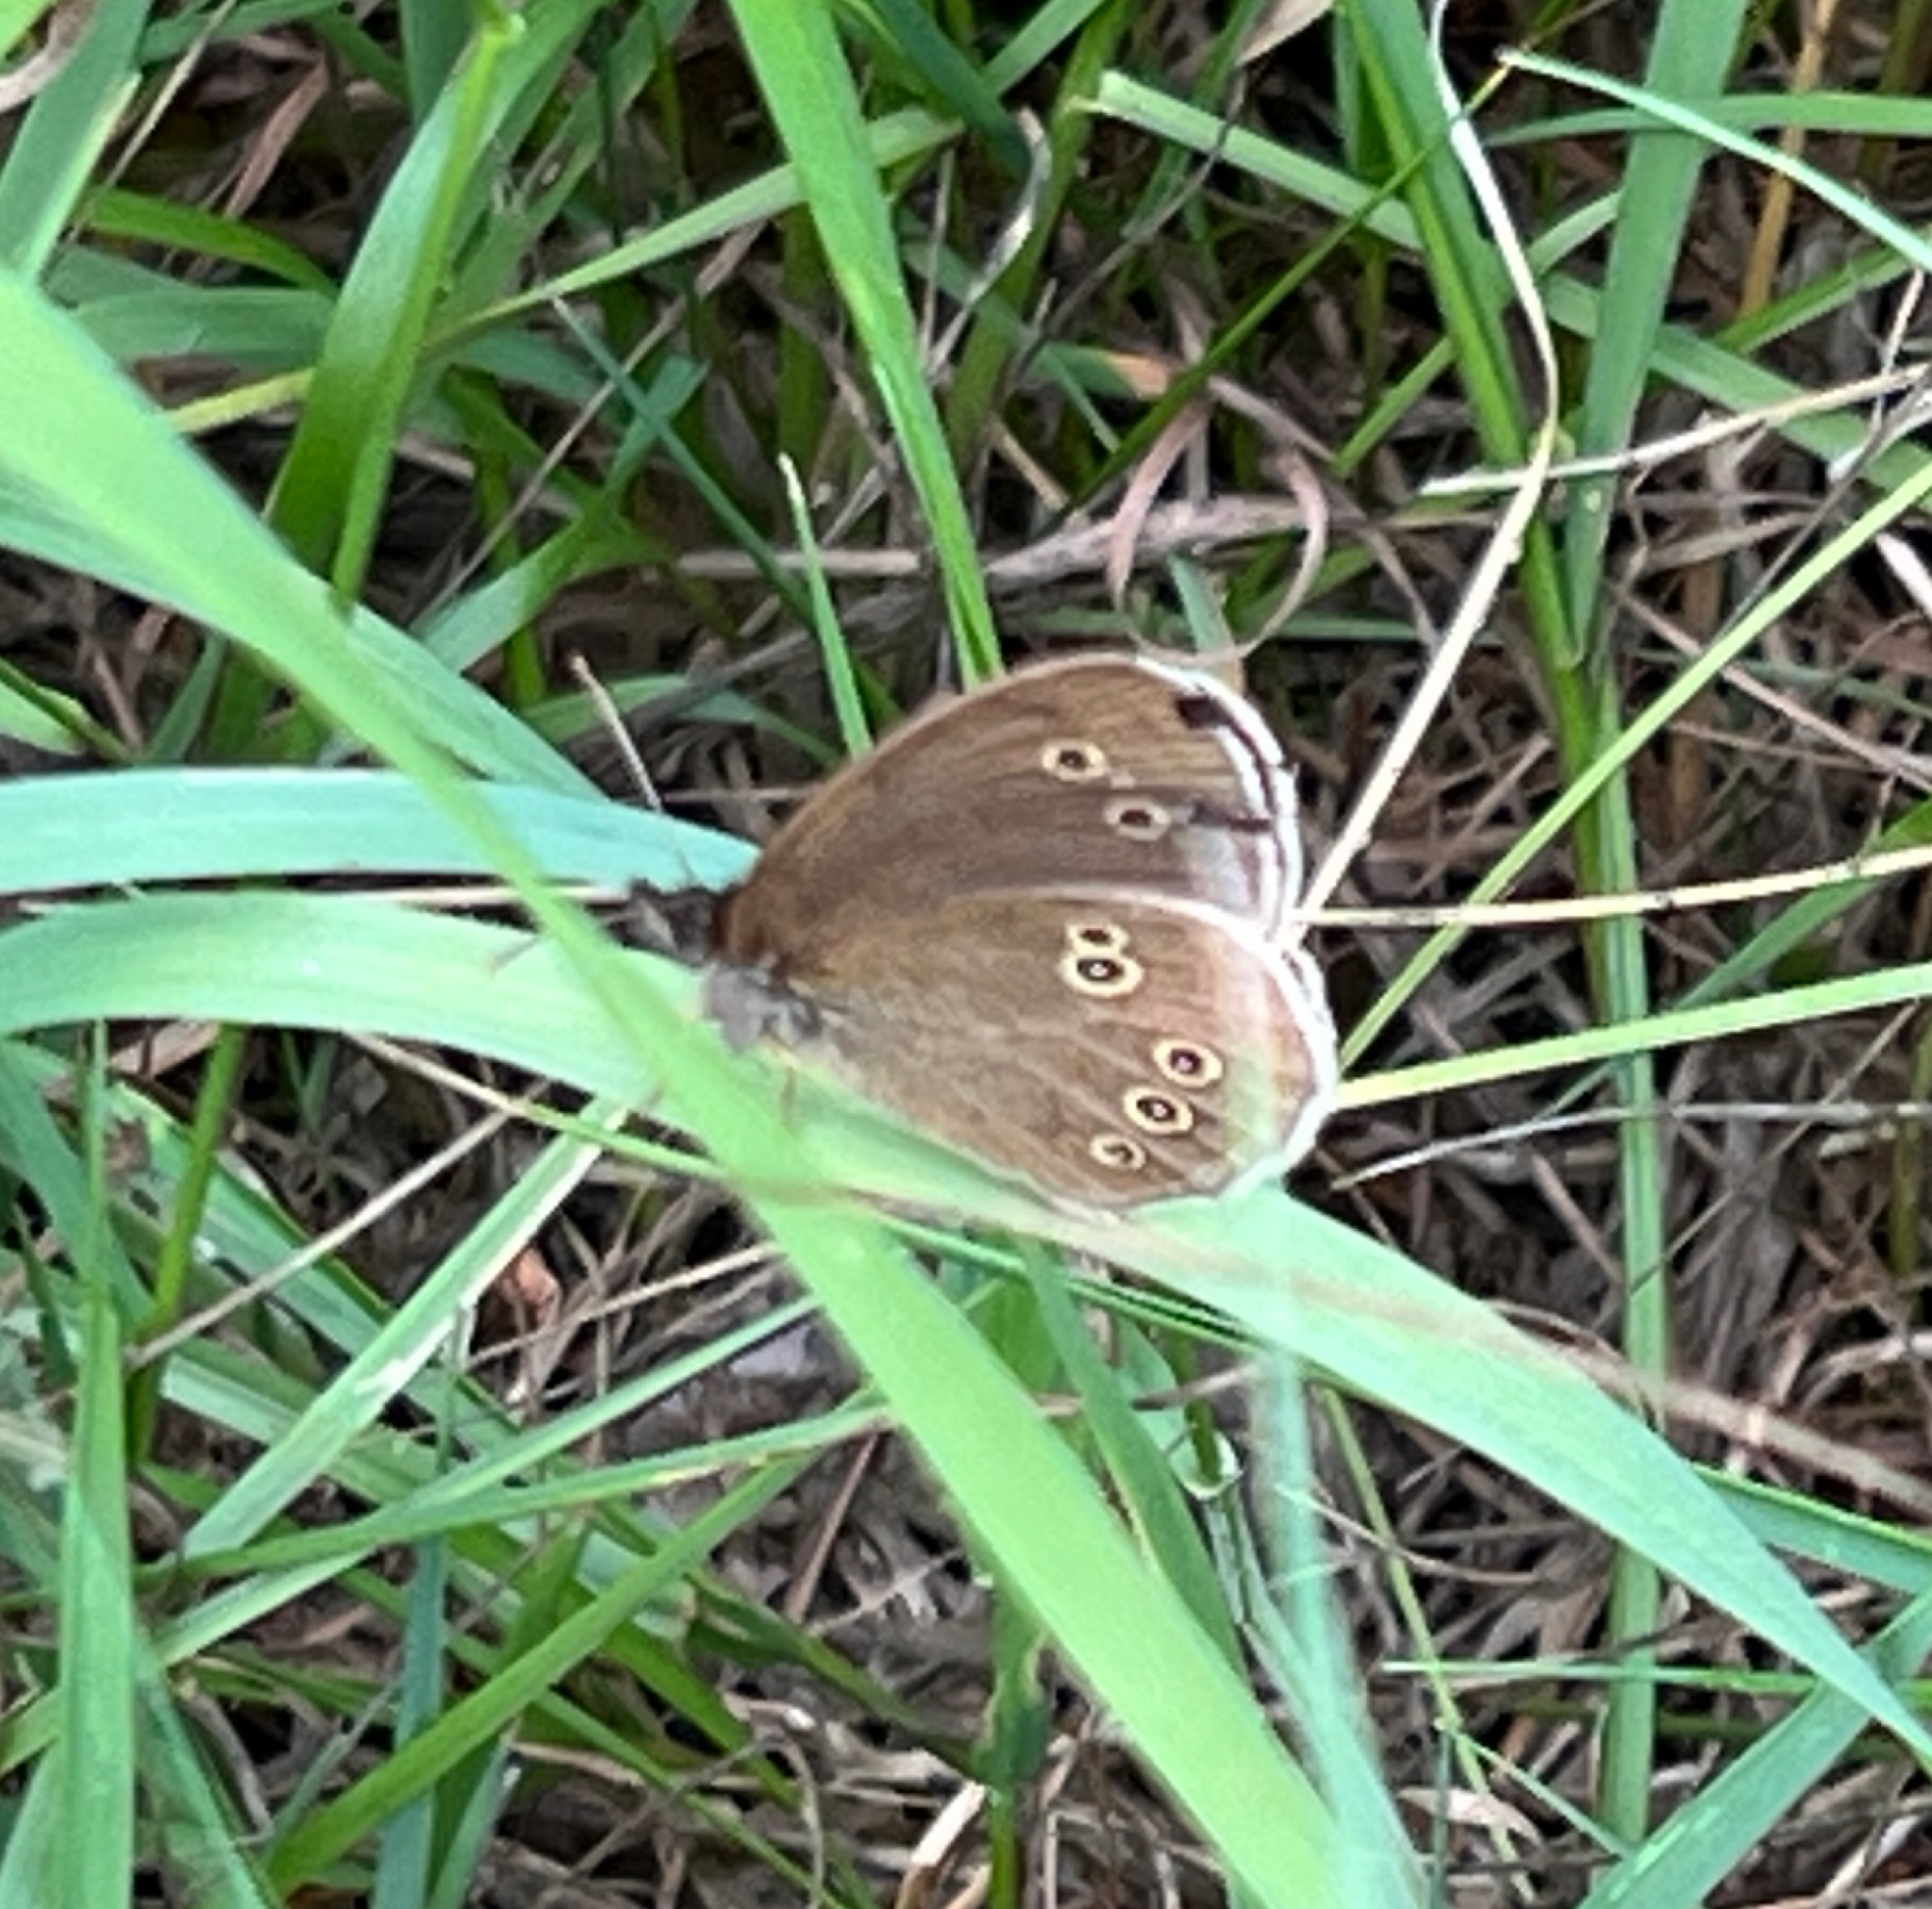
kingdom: Animalia
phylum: Arthropoda
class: Insecta
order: Lepidoptera
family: Nymphalidae
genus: Aphantopus
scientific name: Aphantopus hyperantus
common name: Ringlet
